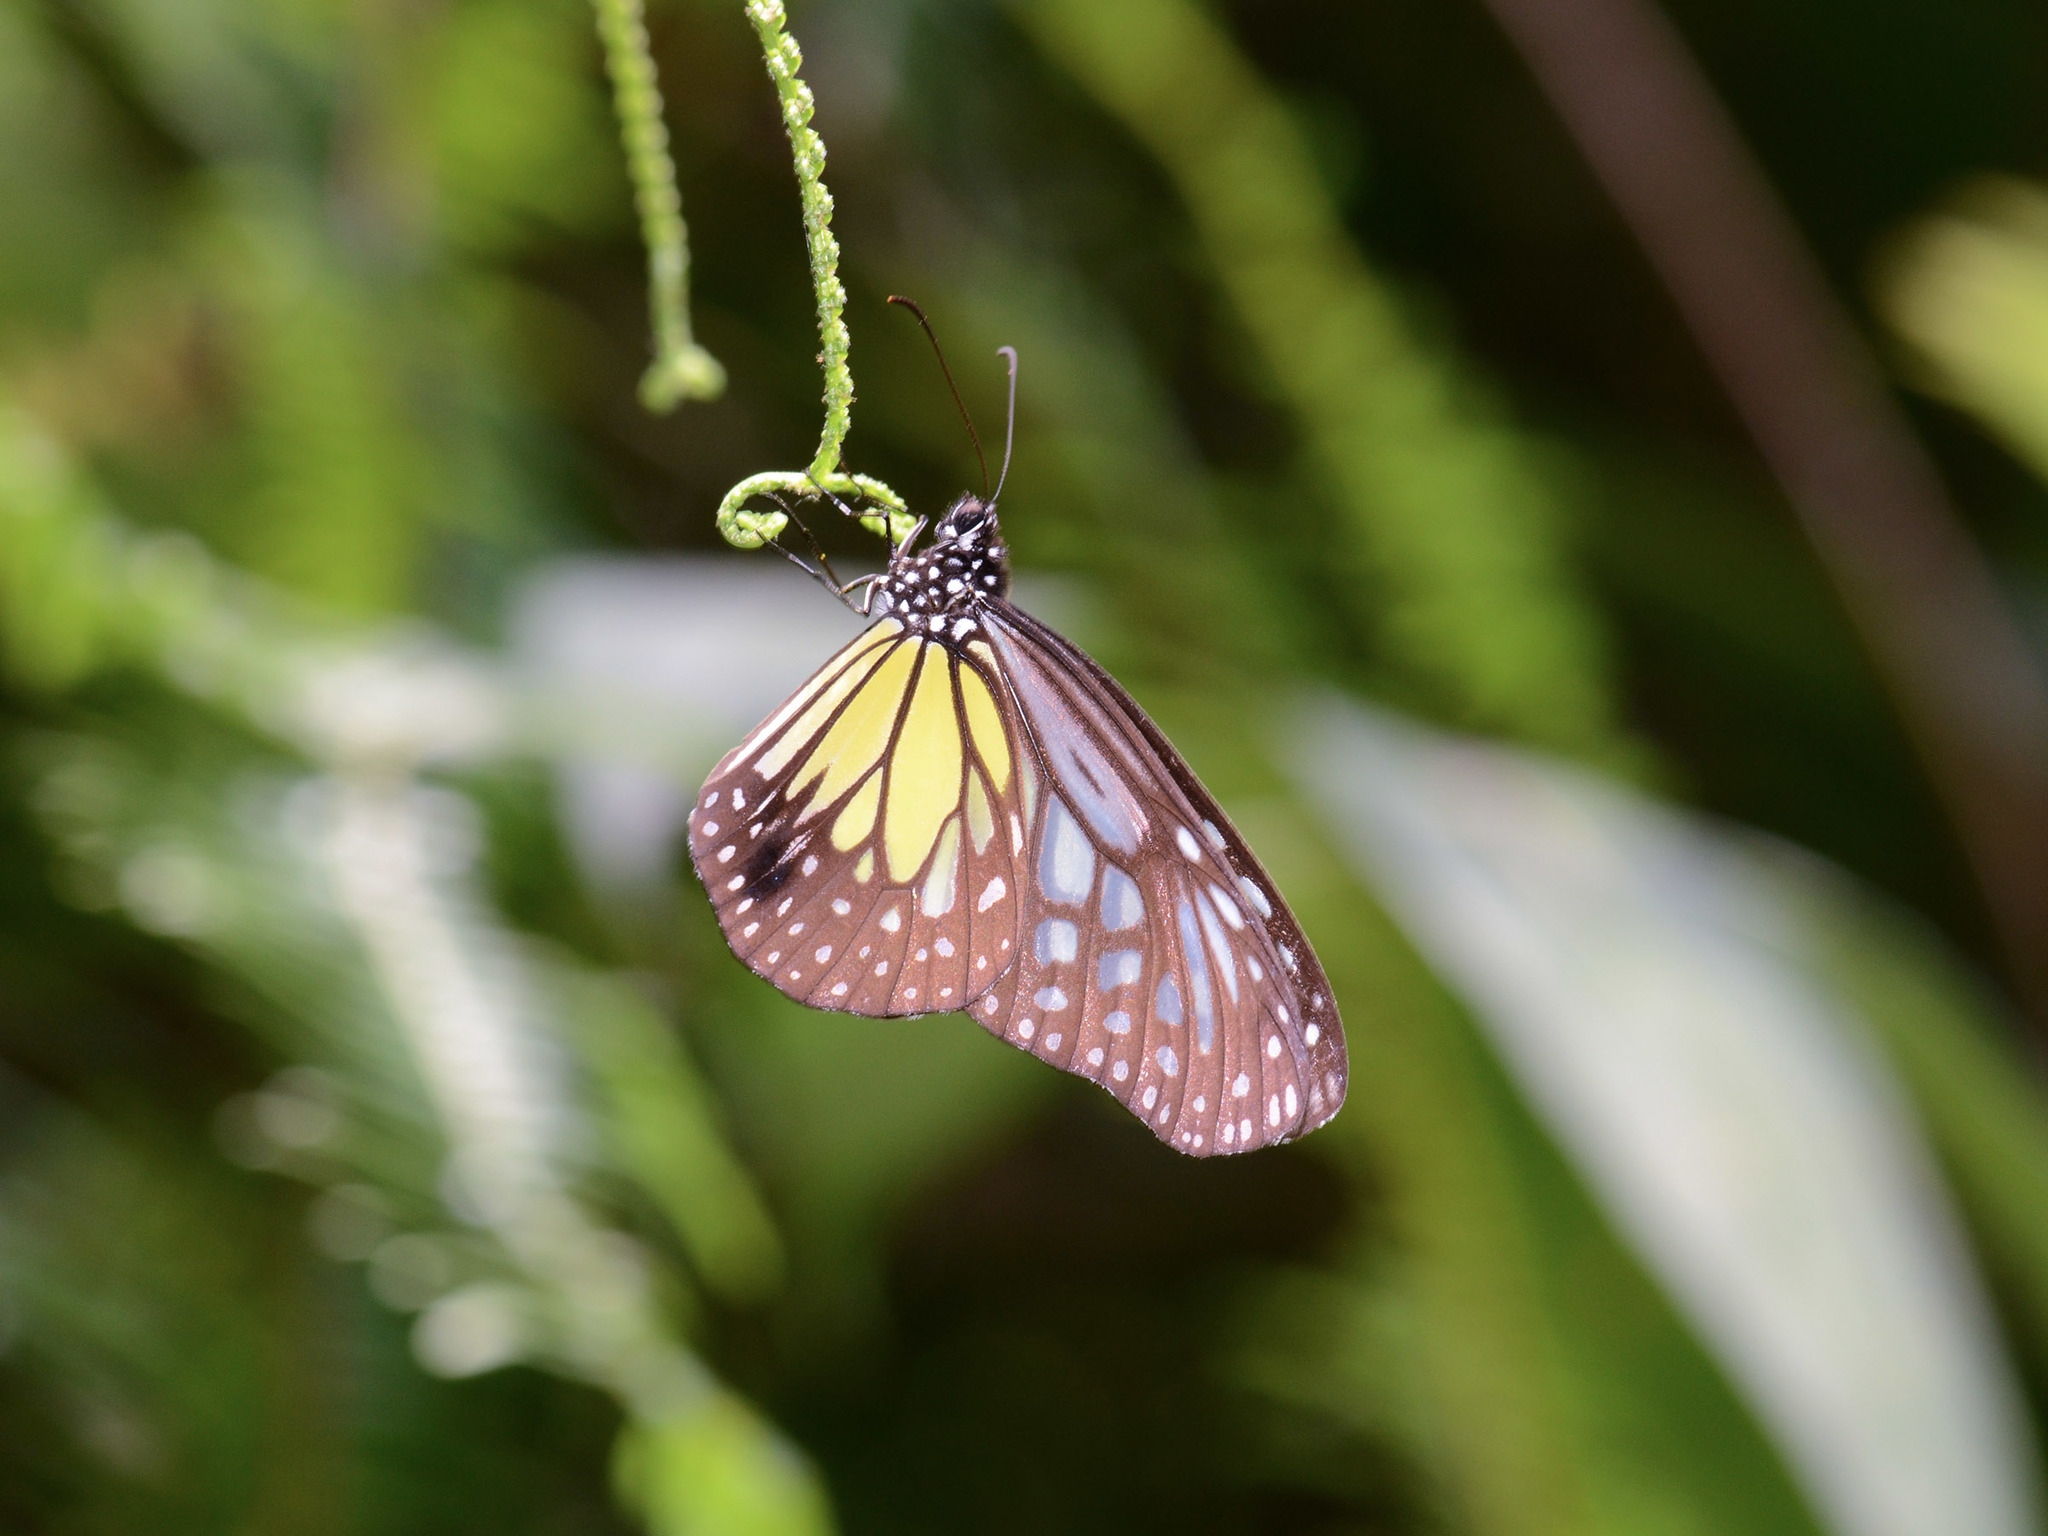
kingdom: Animalia
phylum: Arthropoda
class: Insecta
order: Lepidoptera
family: Nymphalidae
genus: Parantica
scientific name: Parantica aspasia
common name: Yellow glassy tiger
